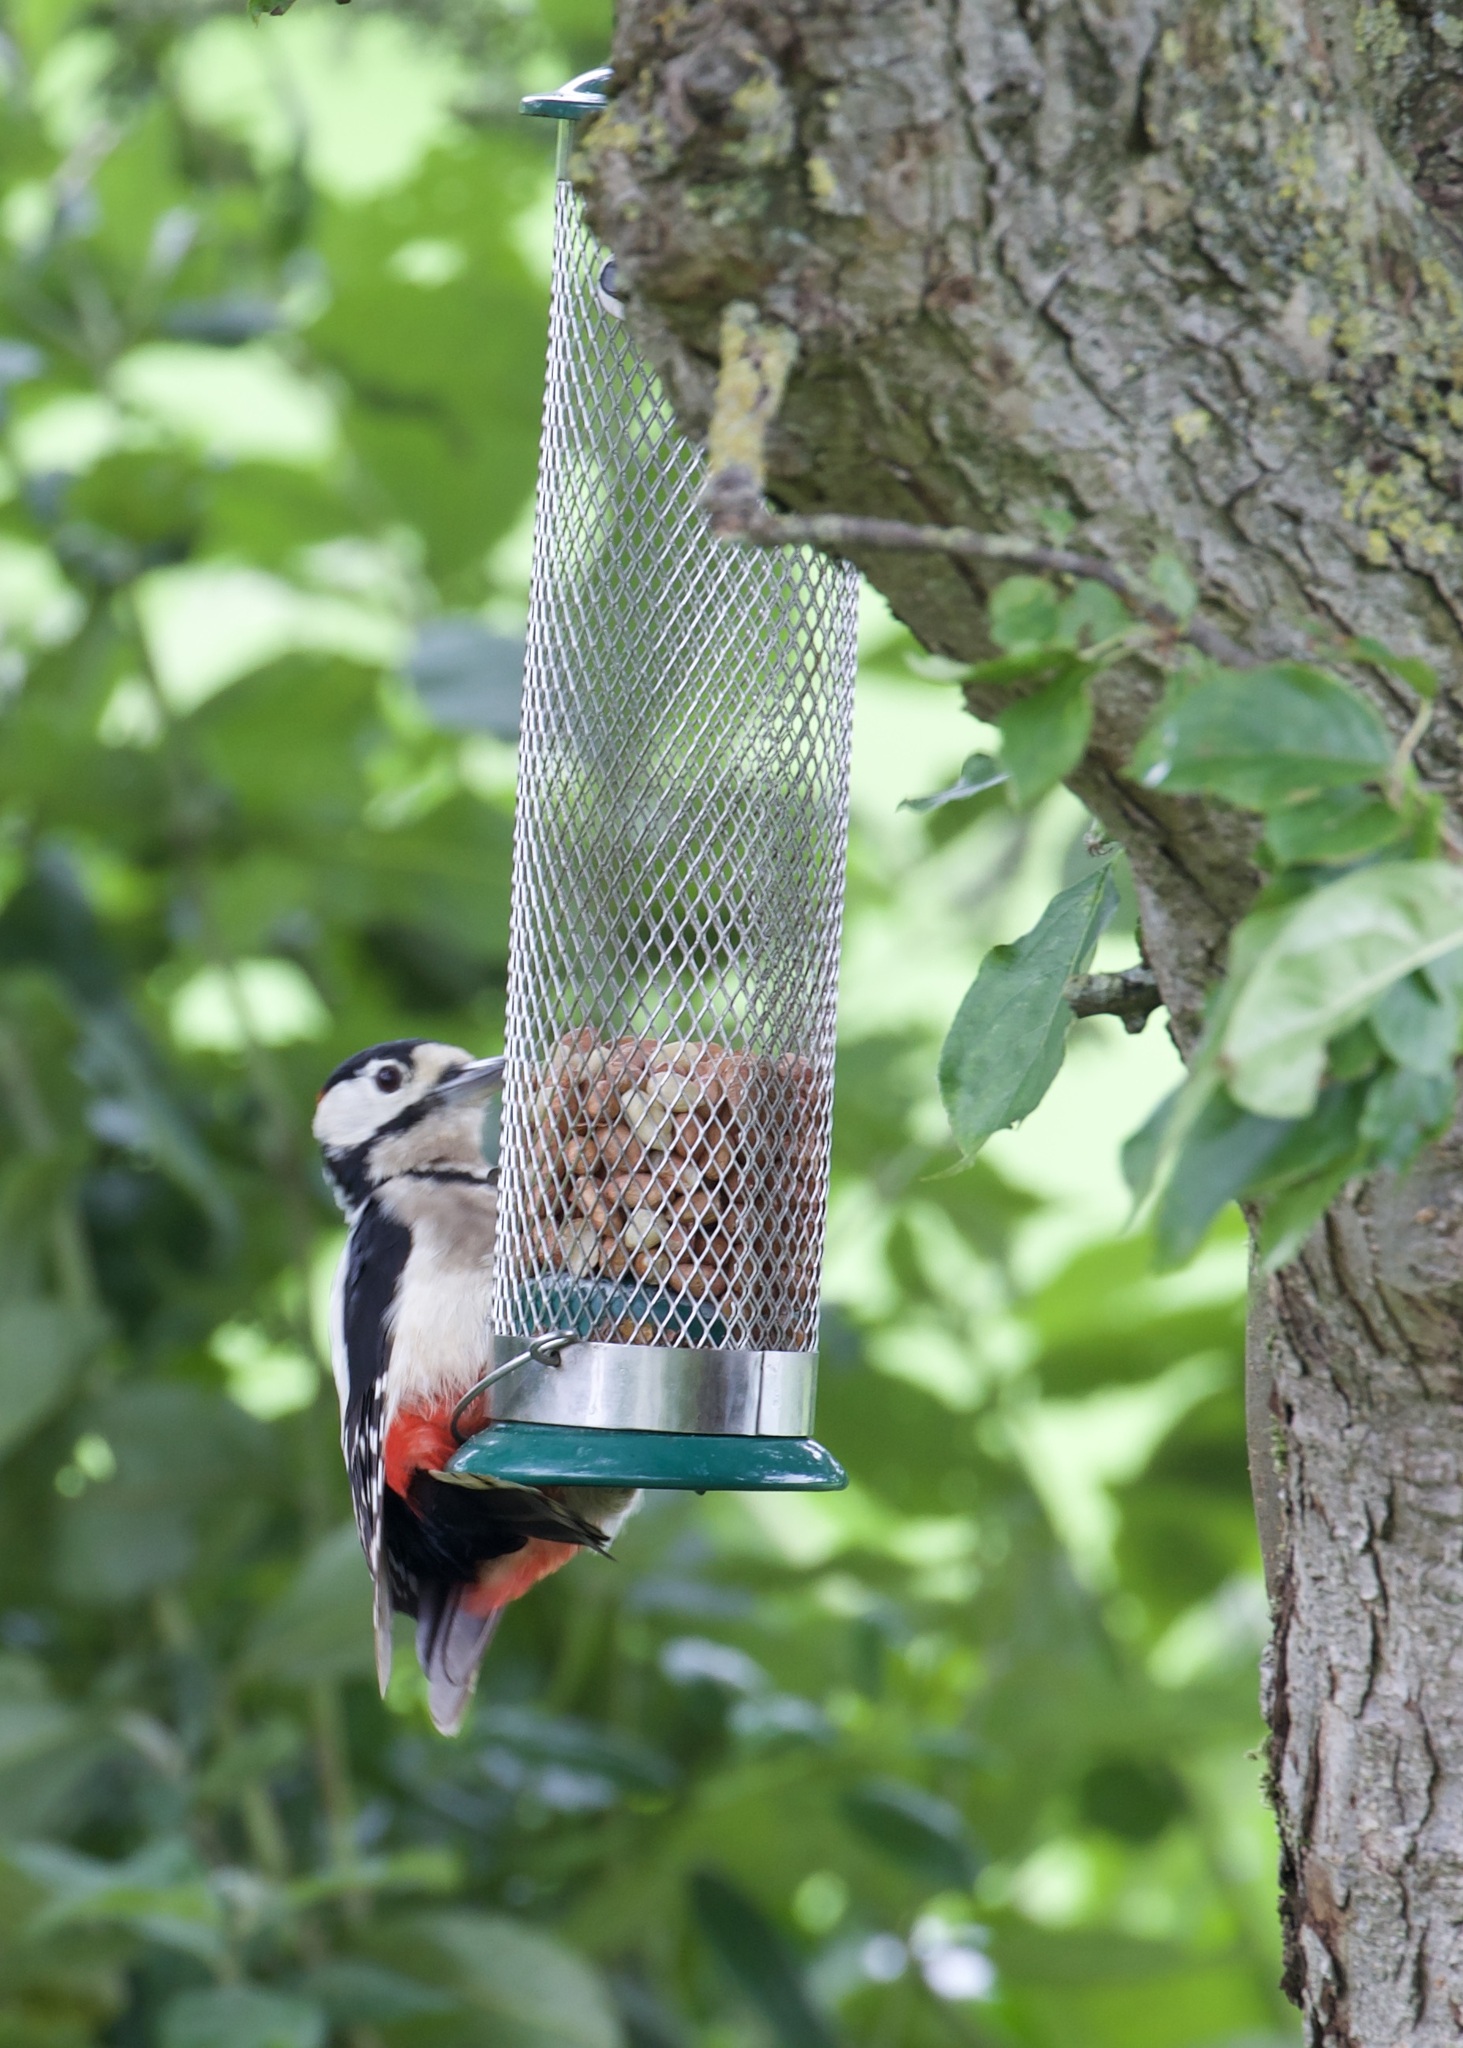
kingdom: Animalia
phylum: Chordata
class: Aves
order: Piciformes
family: Picidae
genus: Dendrocopos
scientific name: Dendrocopos major
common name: Great spotted woodpecker
